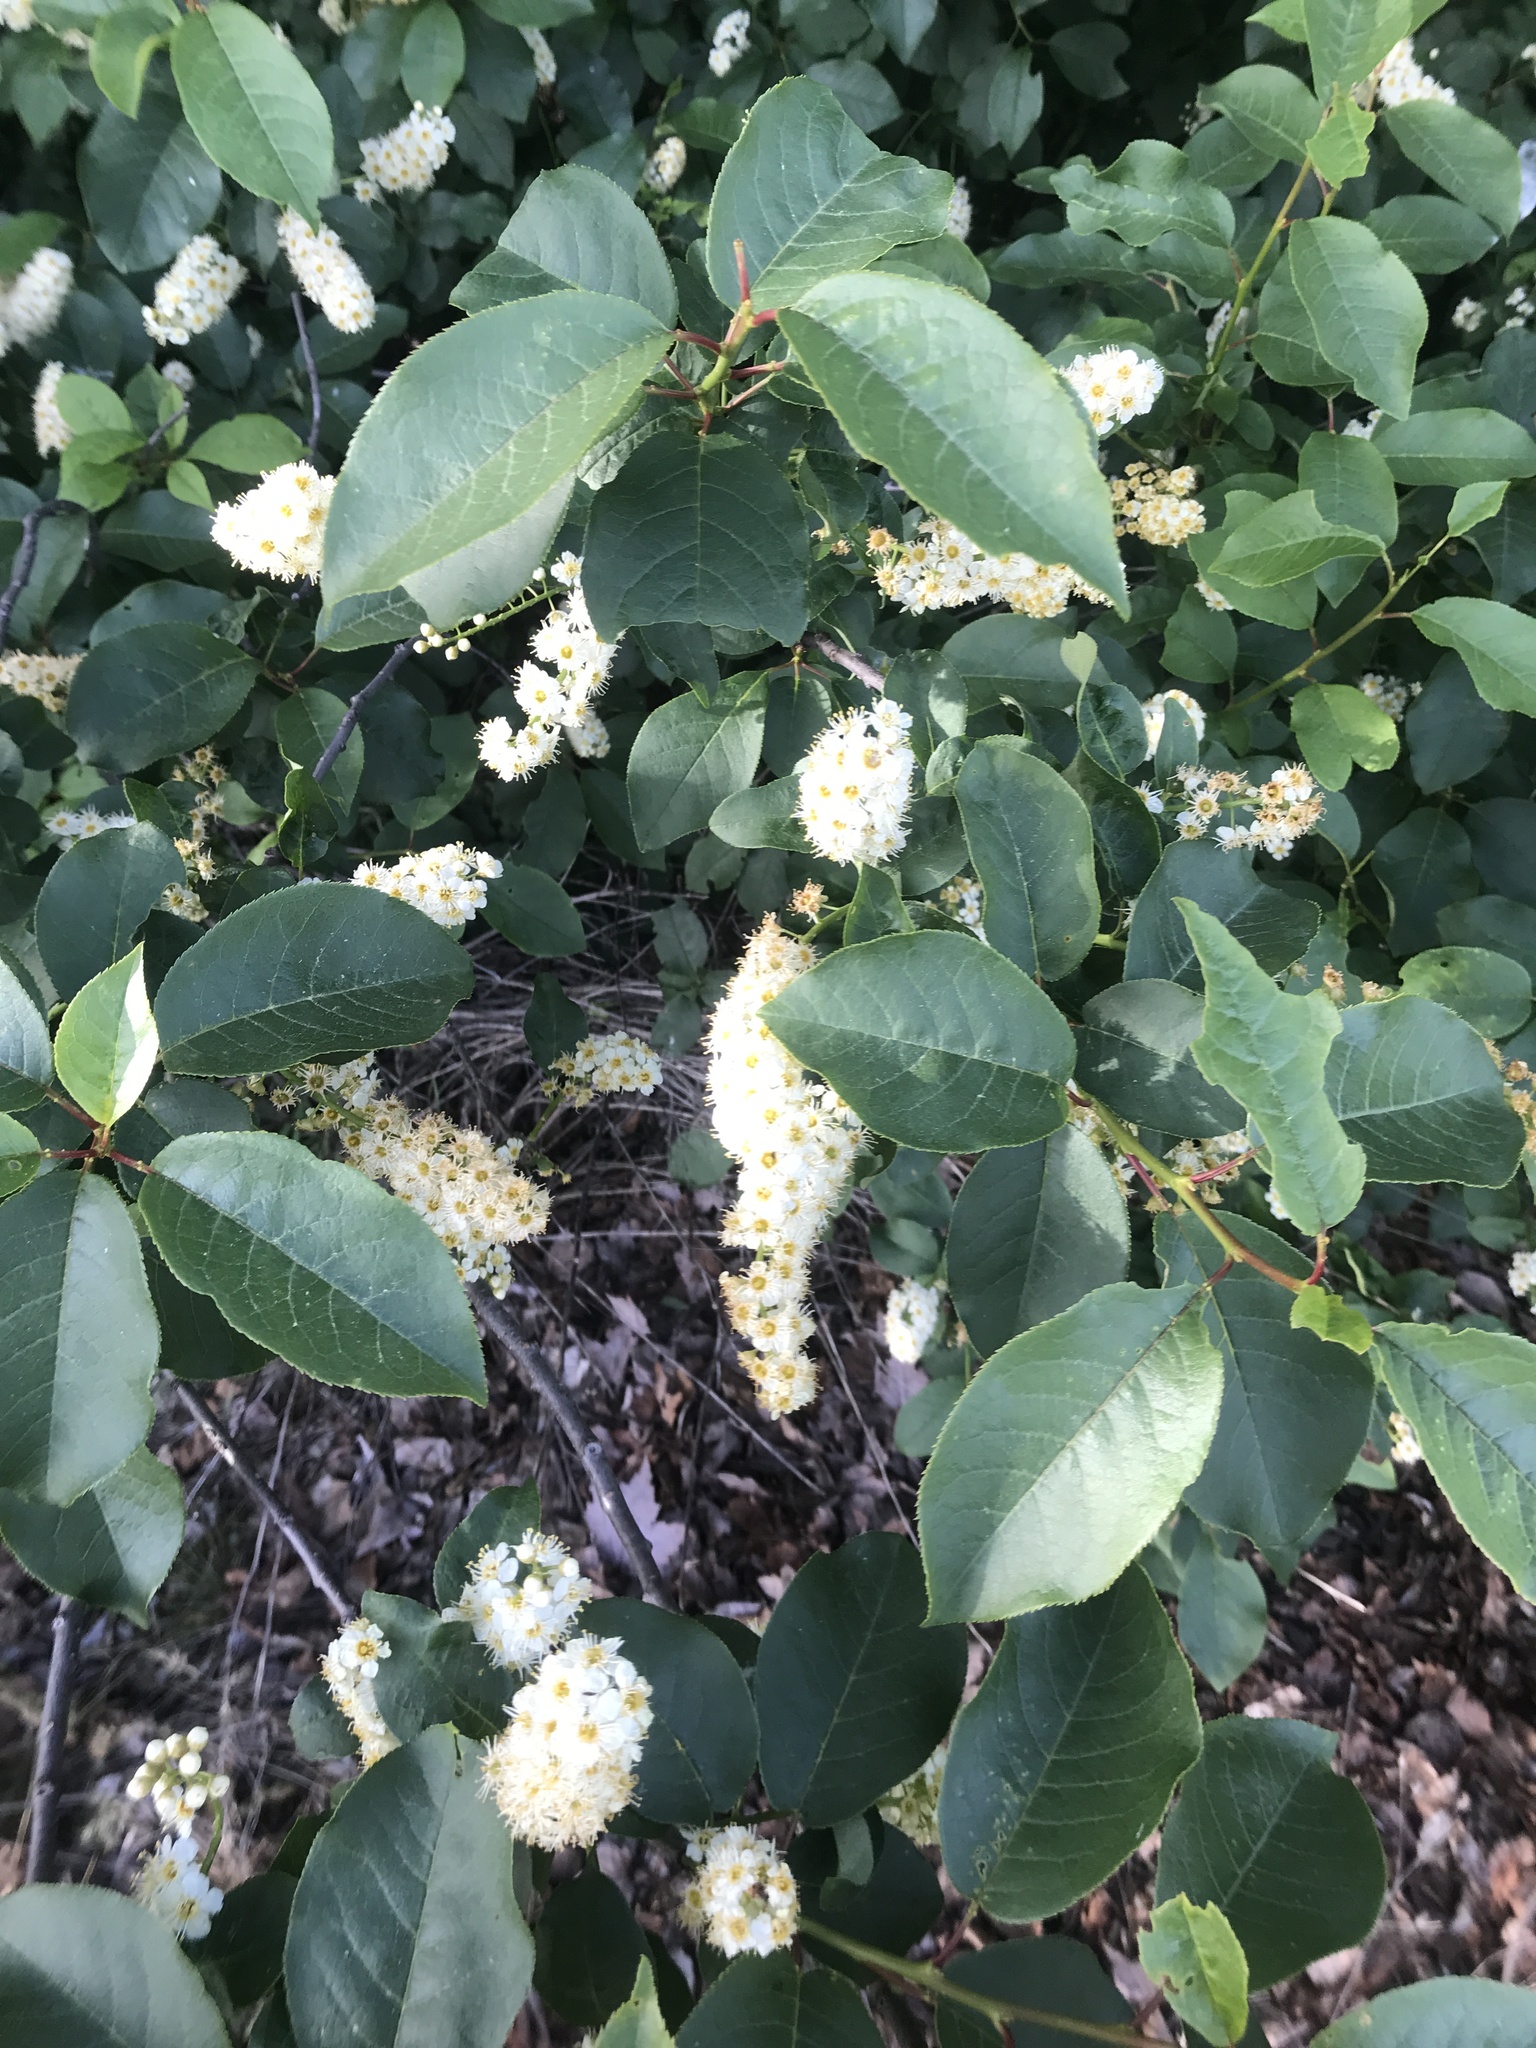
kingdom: Plantae
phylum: Tracheophyta
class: Magnoliopsida
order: Rosales
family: Rosaceae
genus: Prunus
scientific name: Prunus virginiana
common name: Chokecherry
